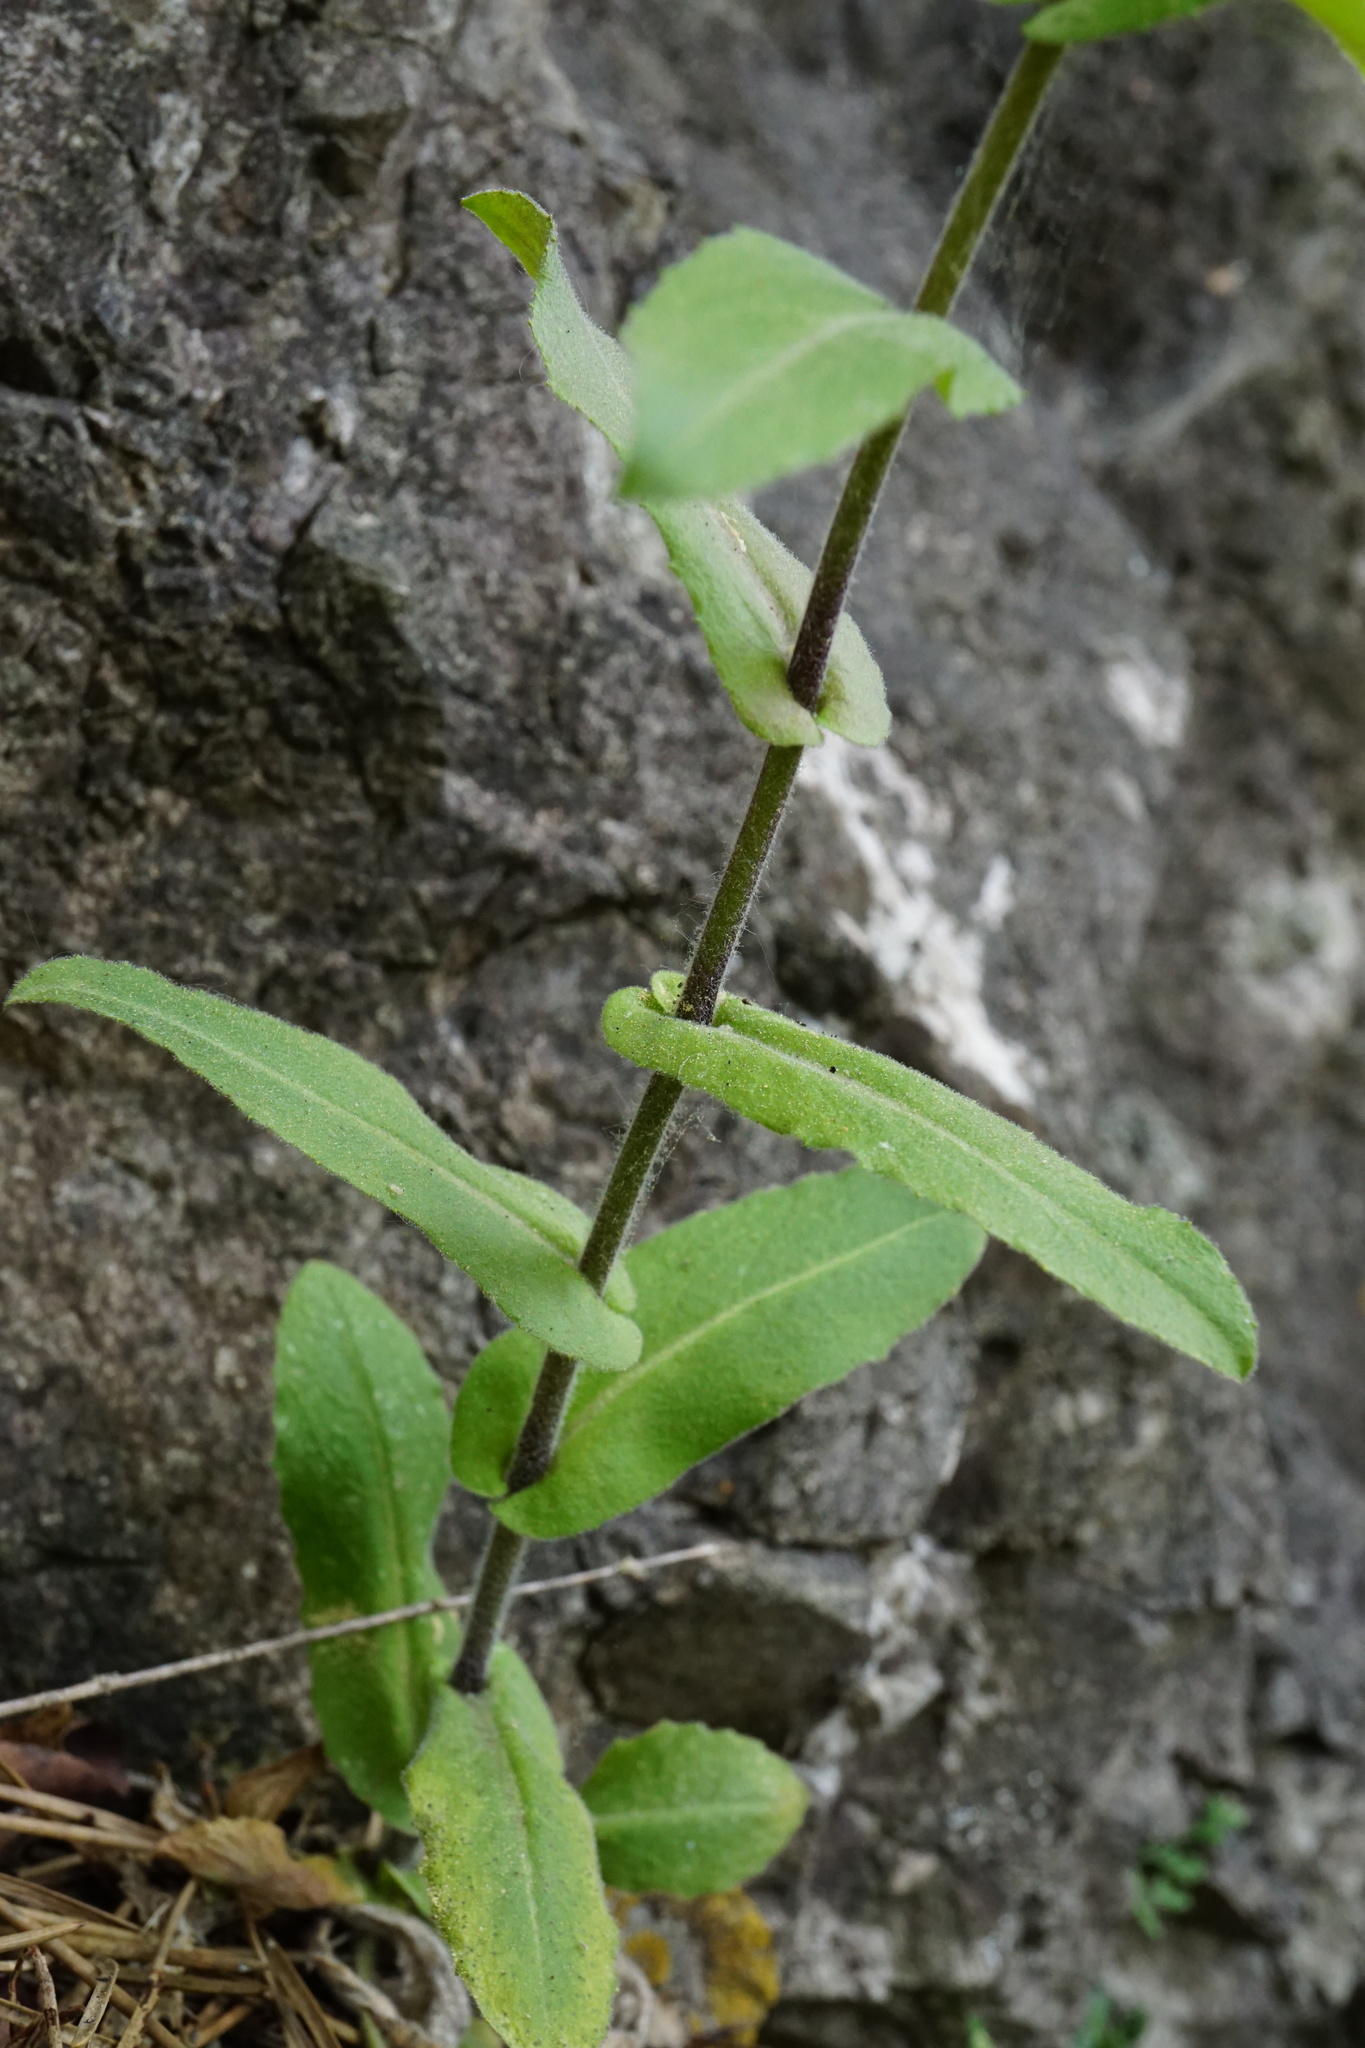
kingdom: Plantae
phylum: Tracheophyta
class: Magnoliopsida
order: Brassicales
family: Brassicaceae
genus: Pseudoturritis
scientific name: Pseudoturritis turrita
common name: Tower cress
